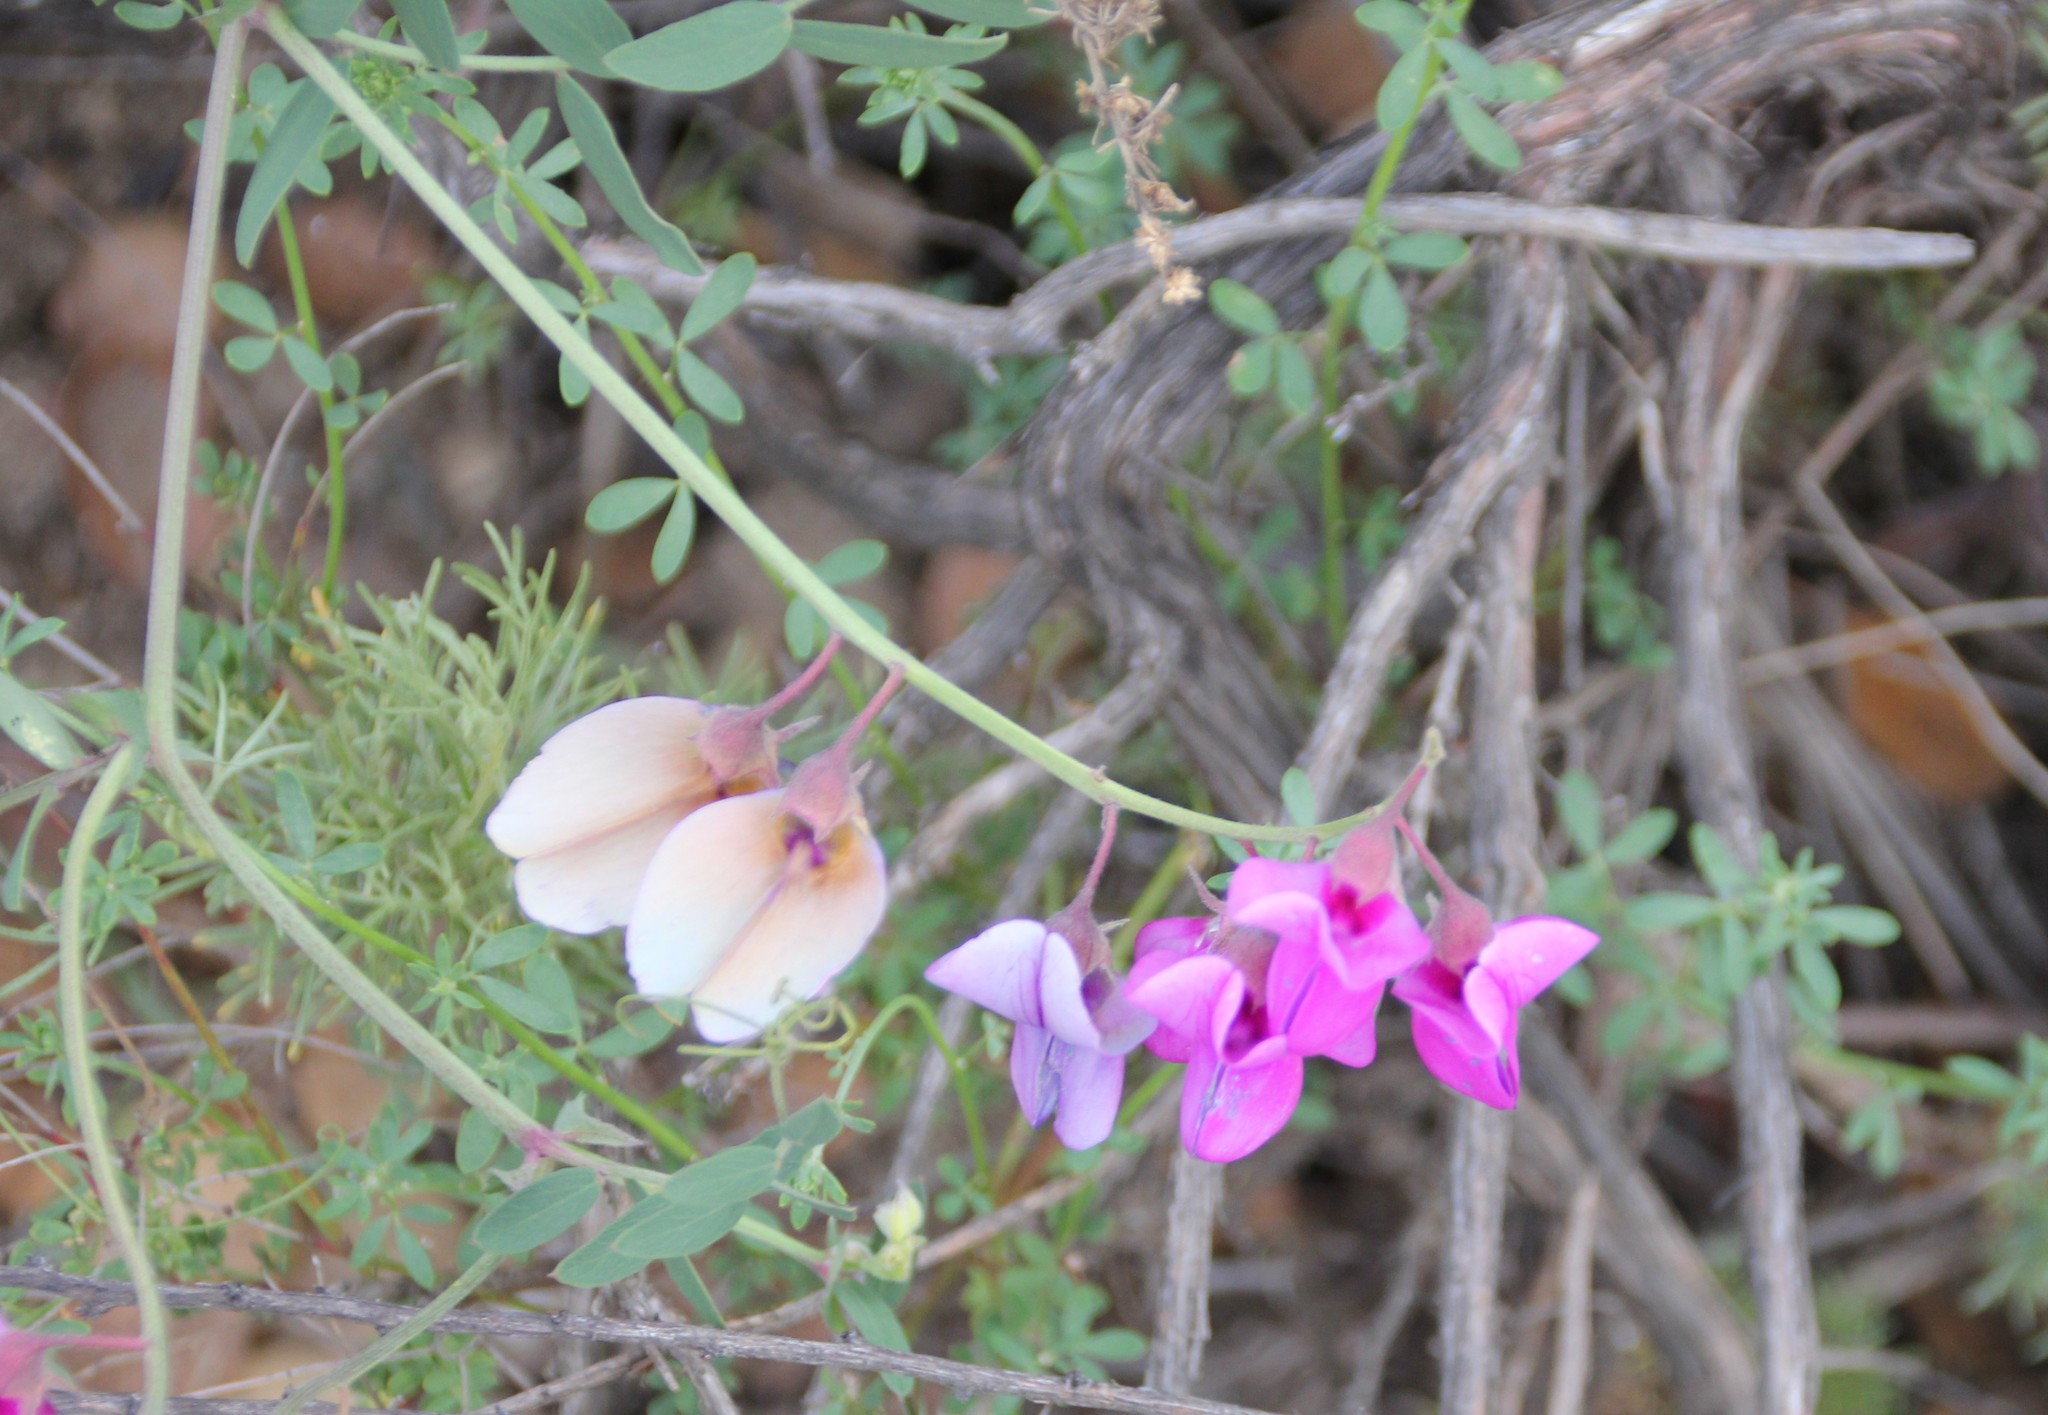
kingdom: Plantae
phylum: Tracheophyta
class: Magnoliopsida
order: Fabales
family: Fabaceae
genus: Lathyrus
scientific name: Lathyrus vestitus
